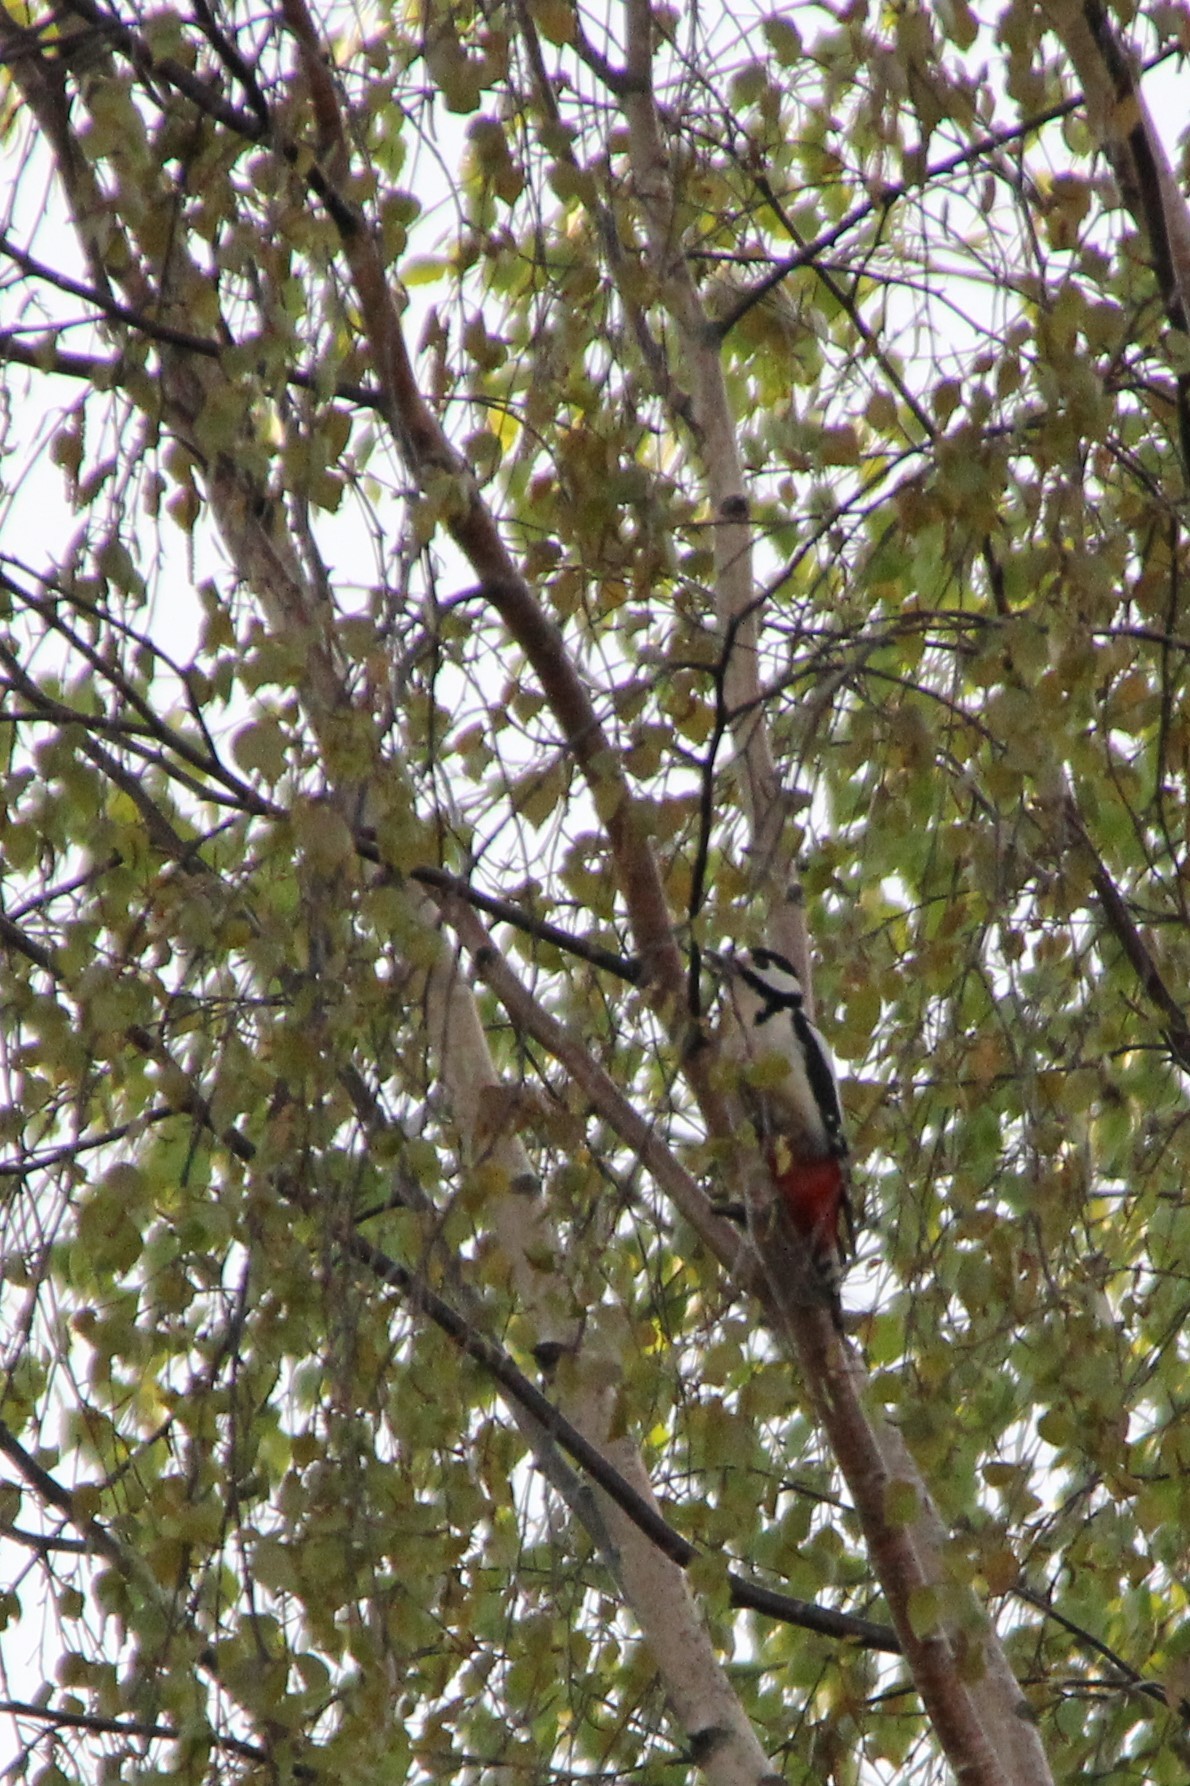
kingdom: Animalia
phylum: Chordata
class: Aves
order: Piciformes
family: Picidae
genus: Dendrocopos
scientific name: Dendrocopos major
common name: Great spotted woodpecker
